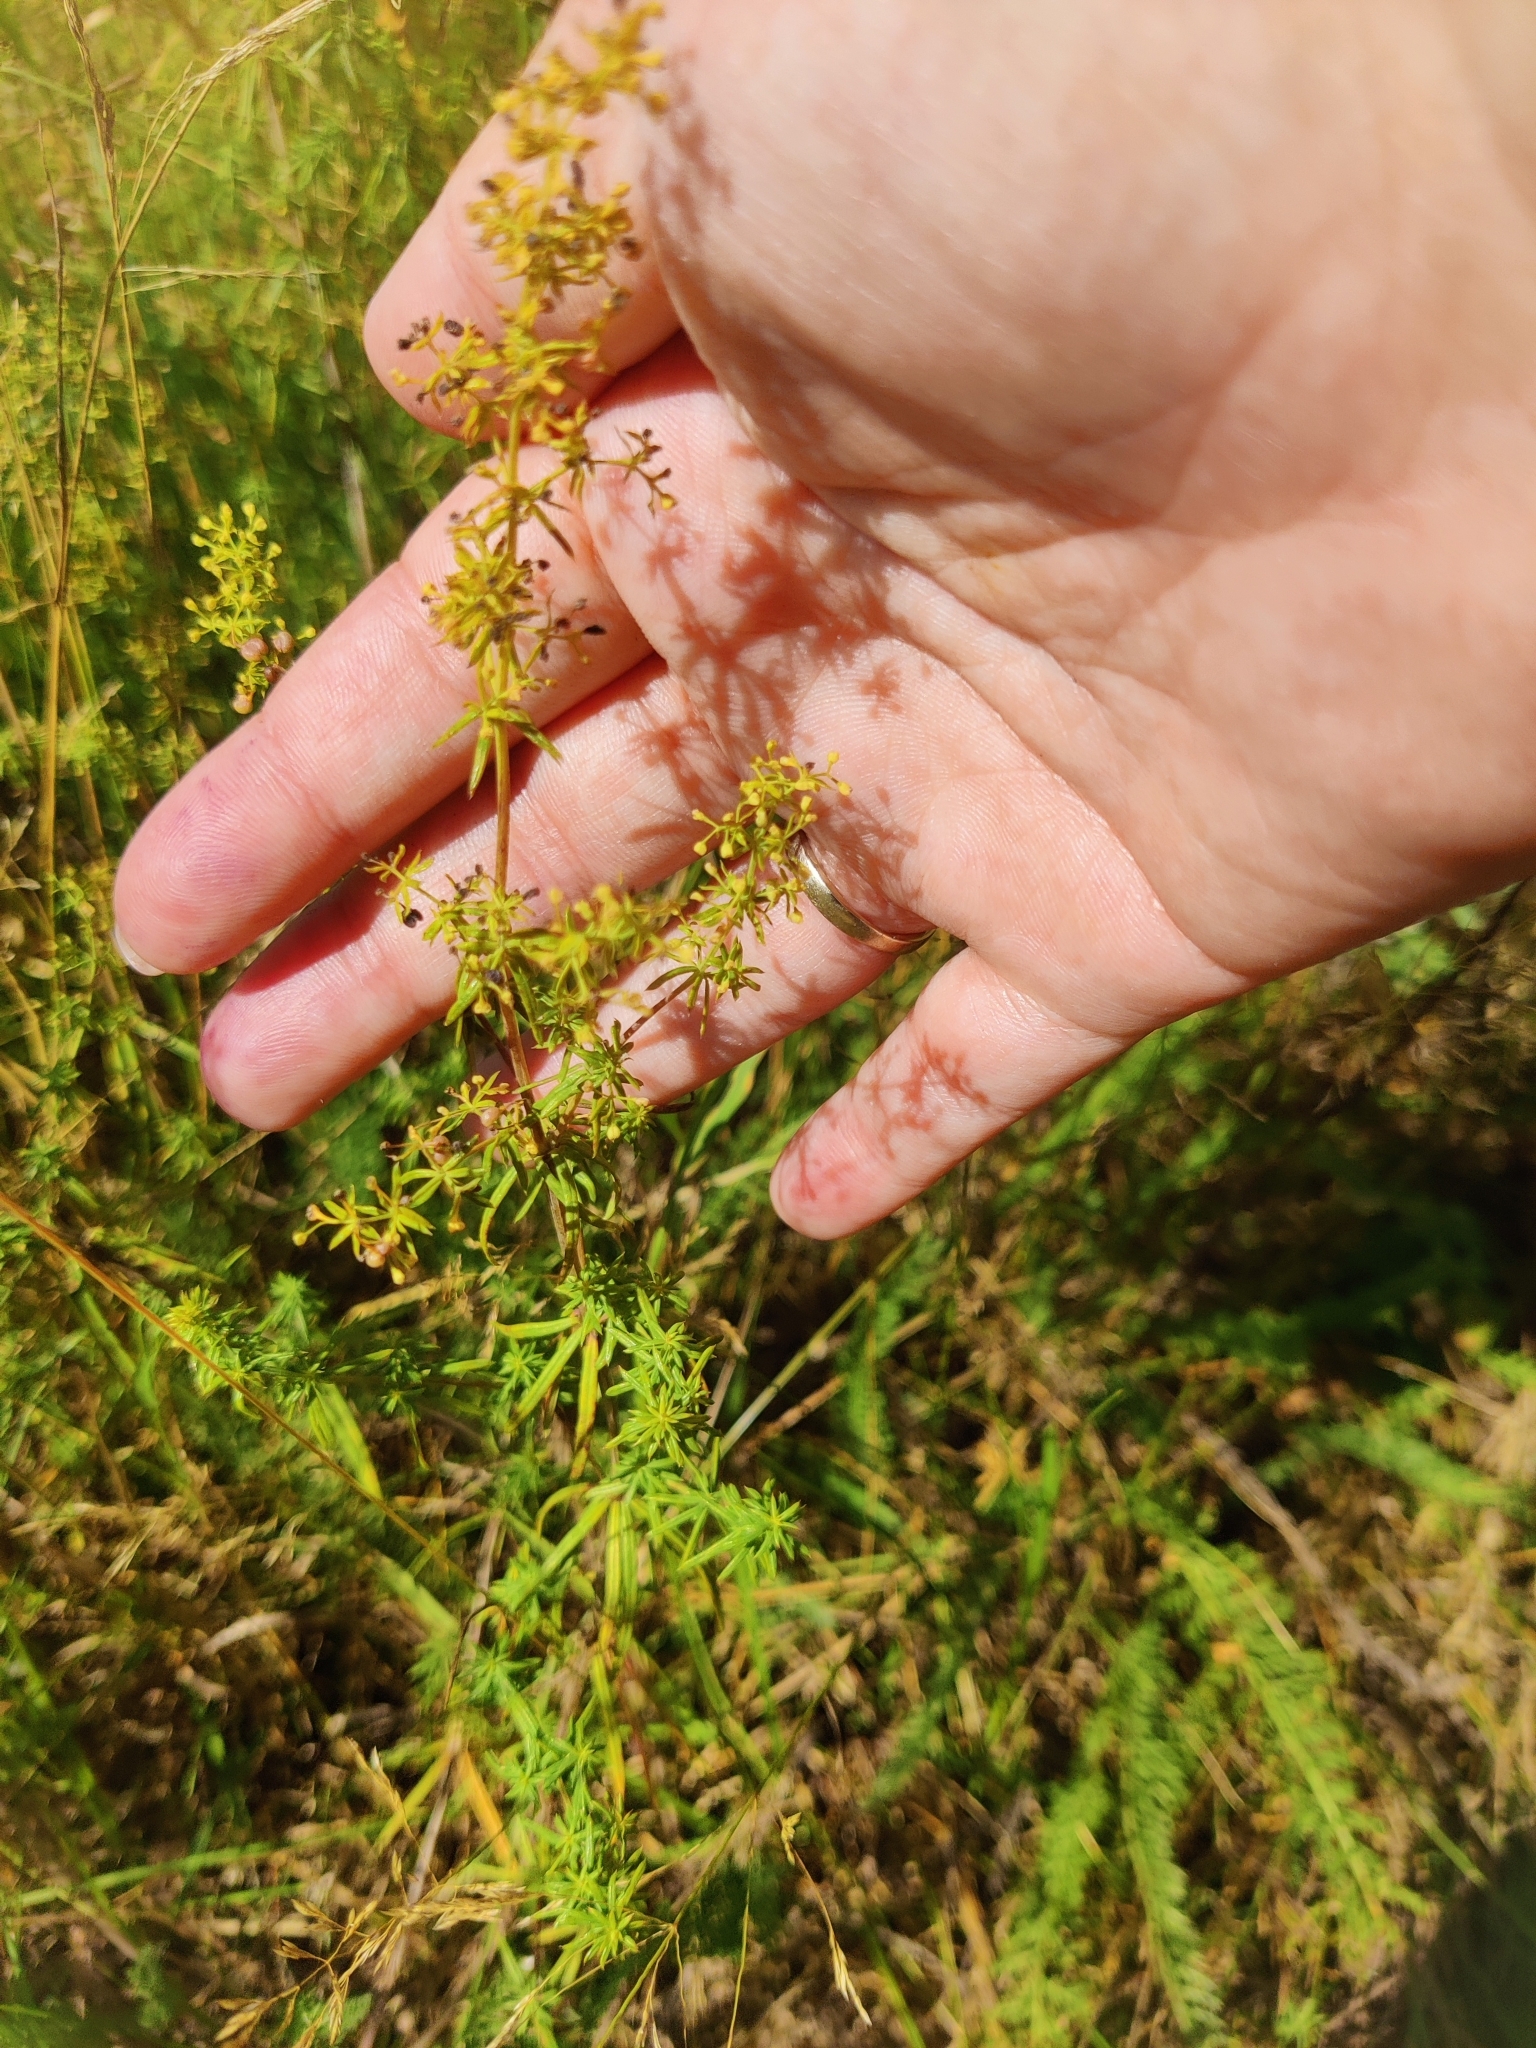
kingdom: Plantae
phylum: Tracheophyta
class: Magnoliopsida
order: Gentianales
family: Rubiaceae
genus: Galium
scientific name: Galium verum
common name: Lady's bedstraw
